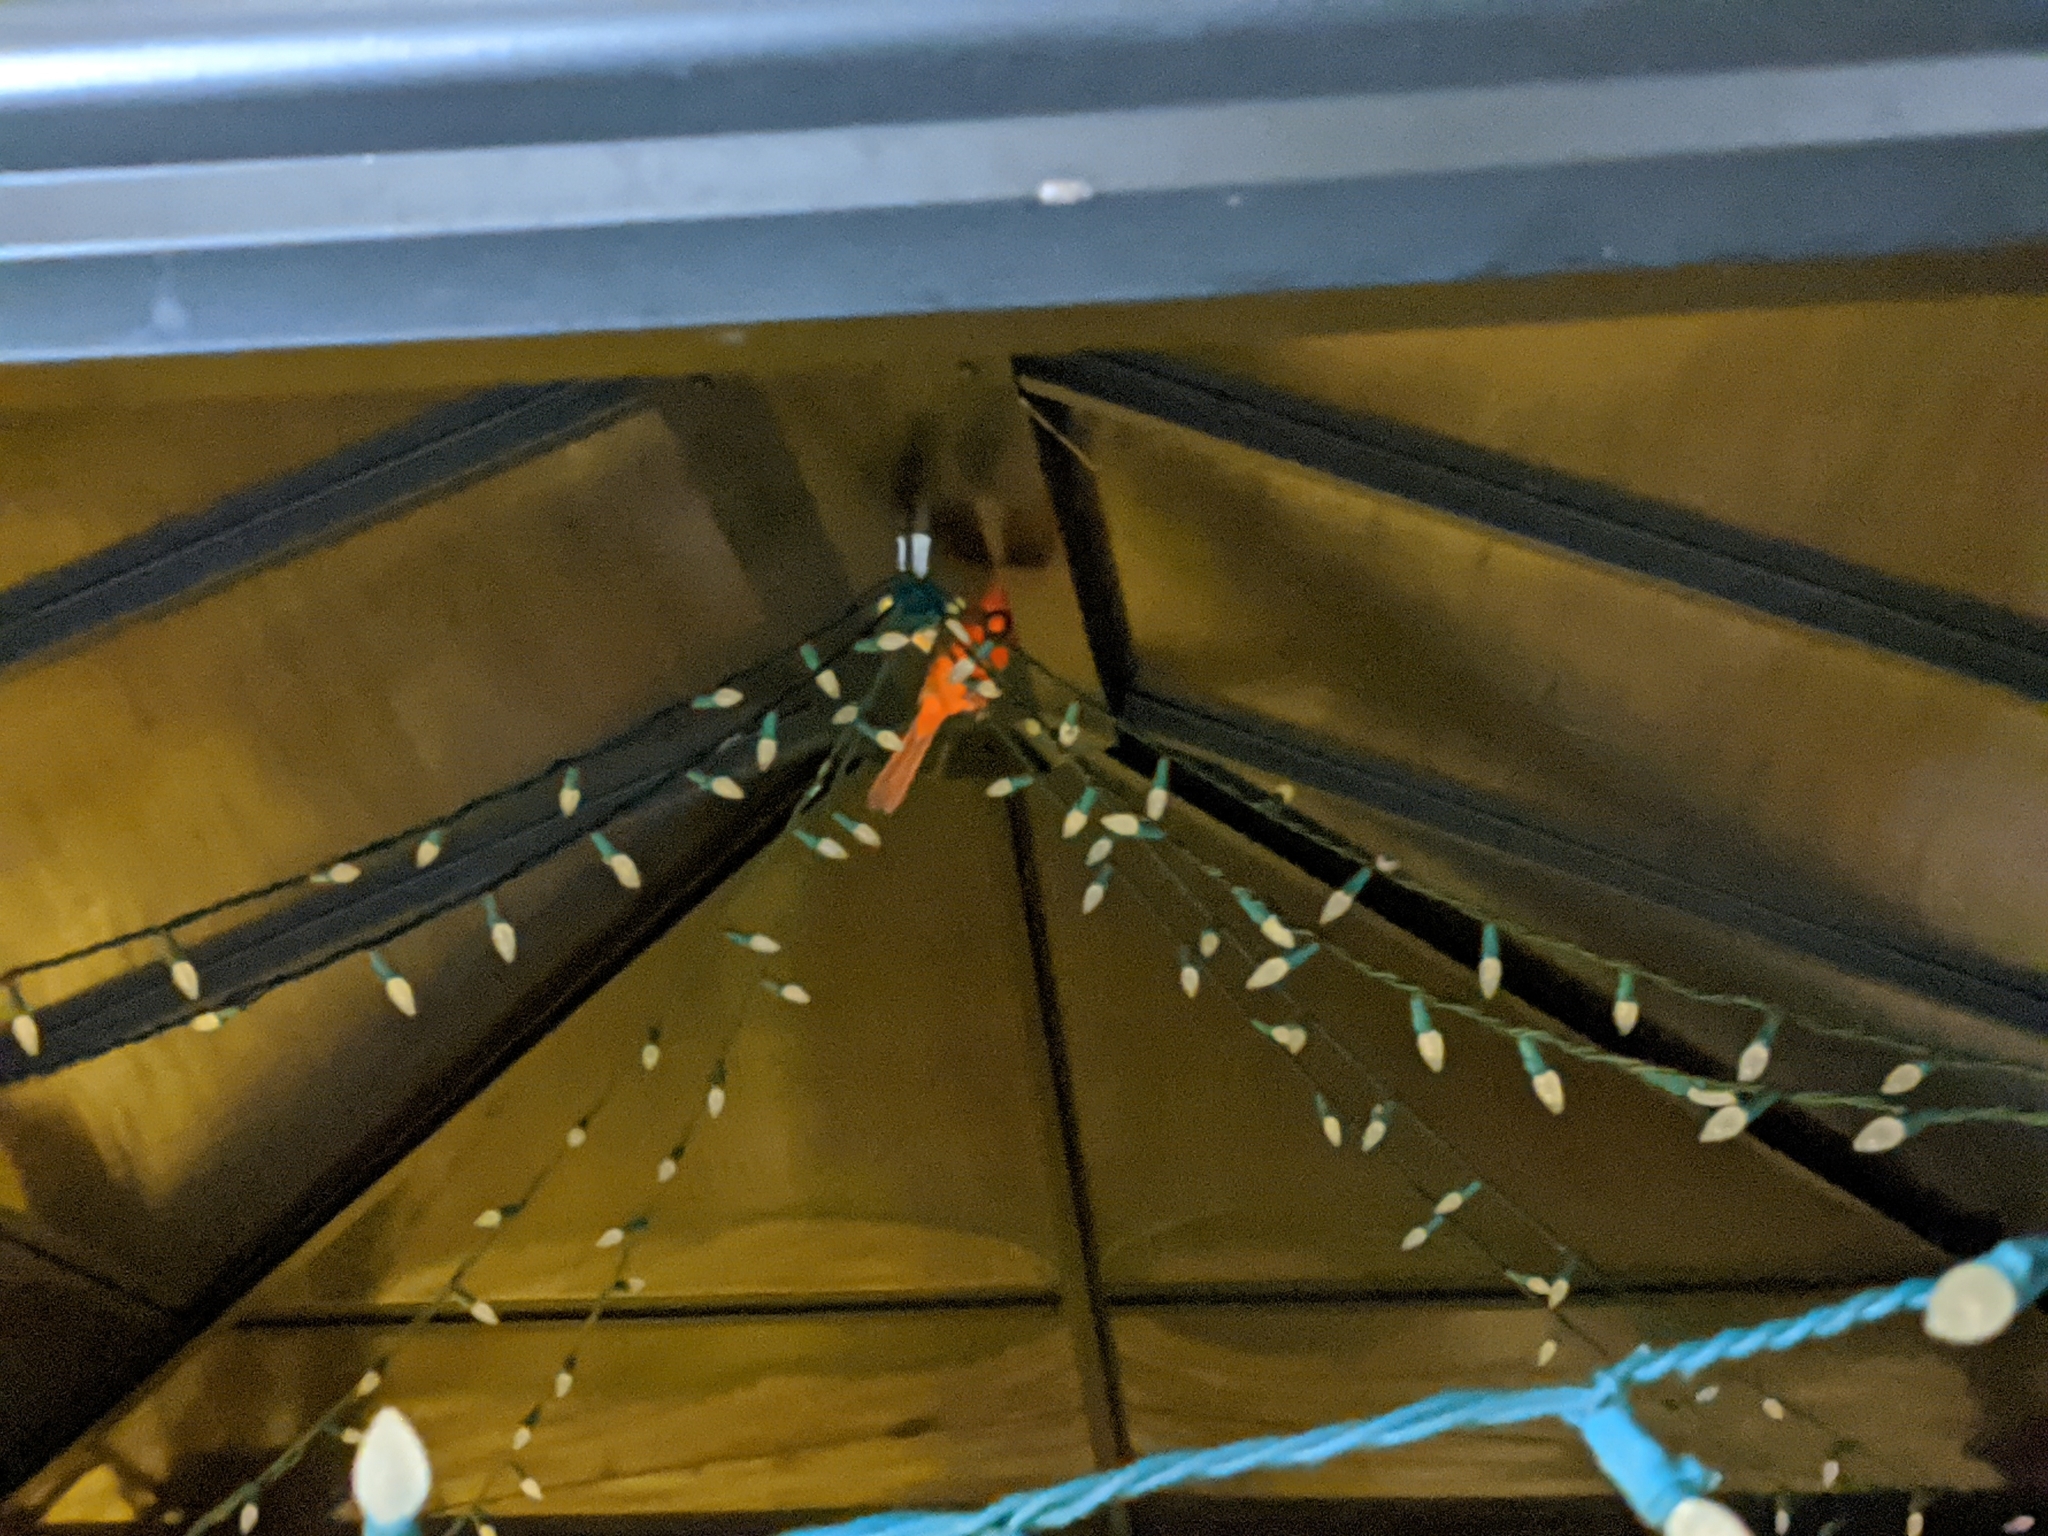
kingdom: Animalia
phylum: Chordata
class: Aves
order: Passeriformes
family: Cardinalidae
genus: Cardinalis
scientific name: Cardinalis cardinalis
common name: Northern cardinal
